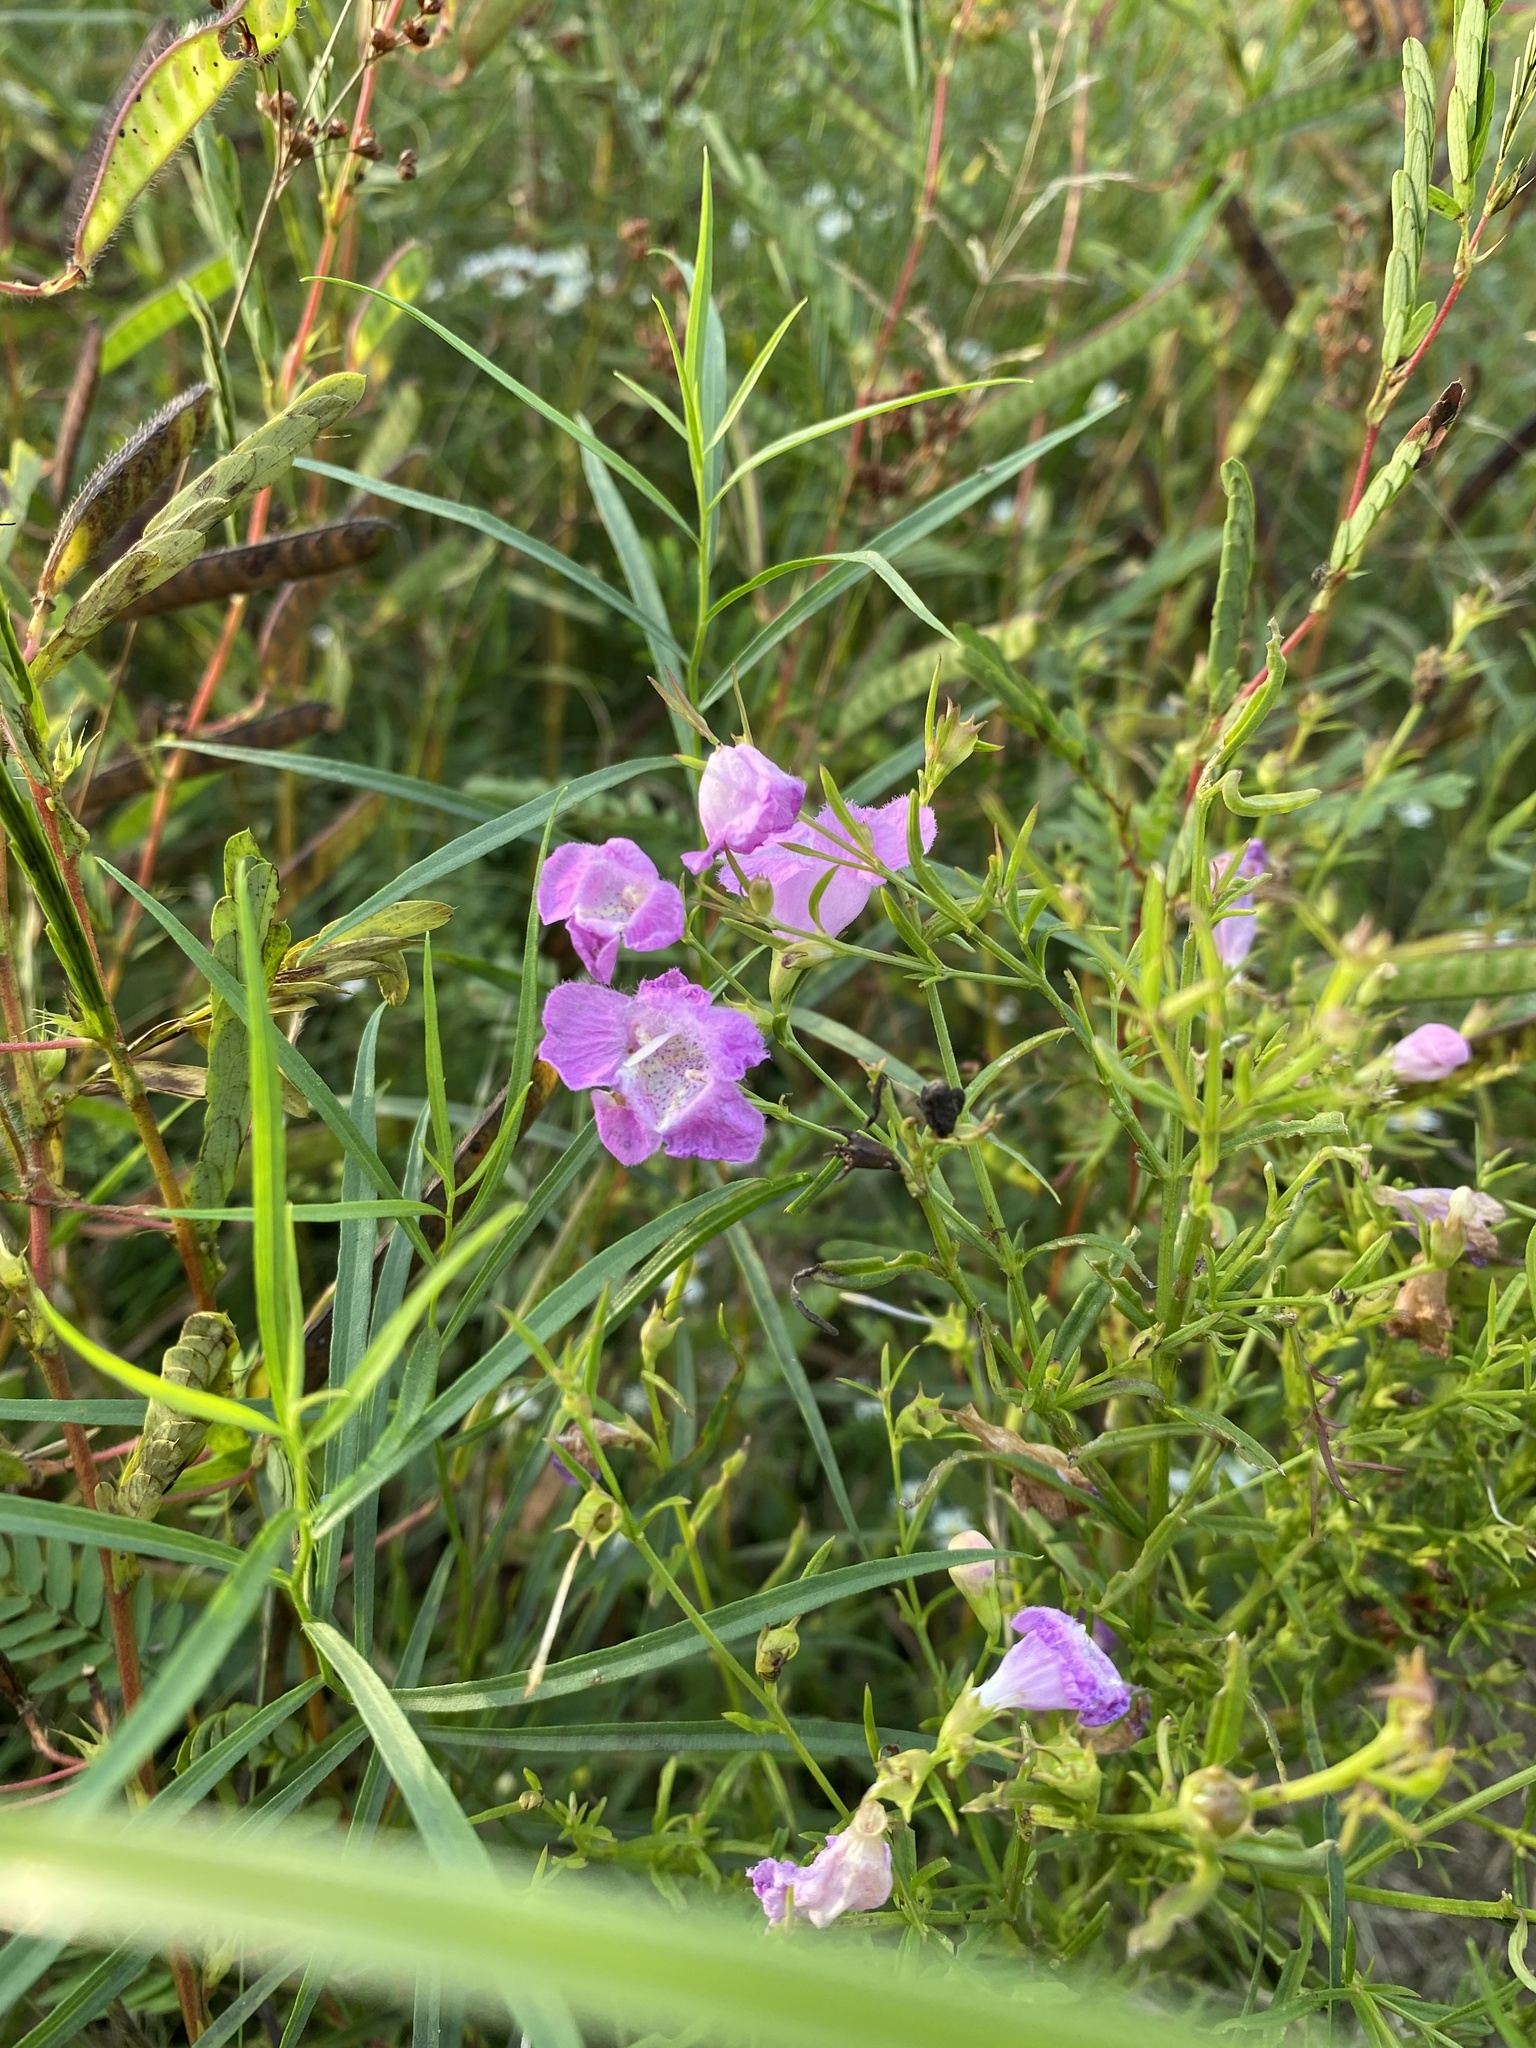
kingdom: Plantae
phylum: Tracheophyta
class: Magnoliopsida
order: Lamiales
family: Orobanchaceae
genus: Agalinis
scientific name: Agalinis purpurea
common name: Purple false foxglove
